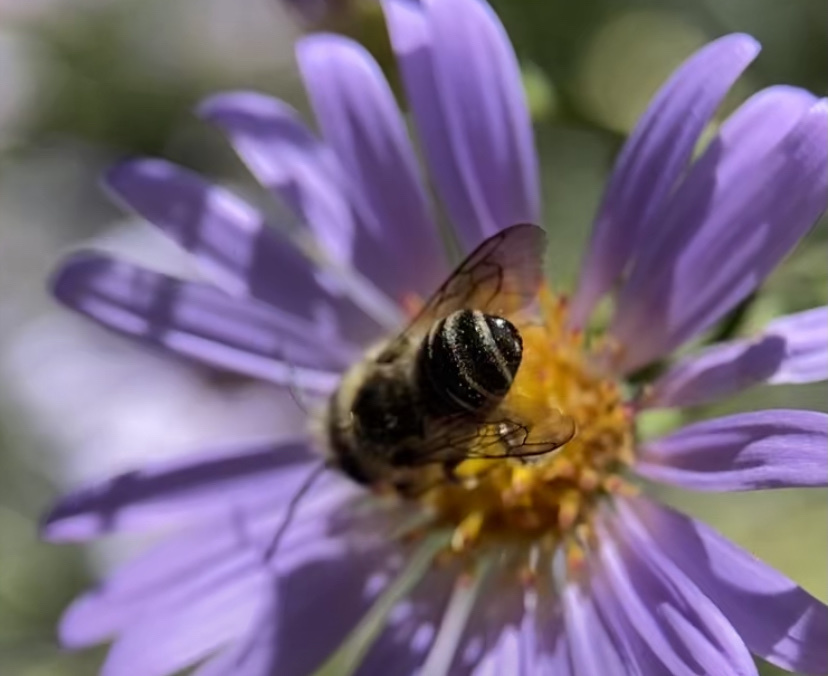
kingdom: Animalia
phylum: Arthropoda
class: Insecta
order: Hymenoptera
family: Megachilidae
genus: Megachile
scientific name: Megachile centuncularis
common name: Patchwork leafcutter bee
